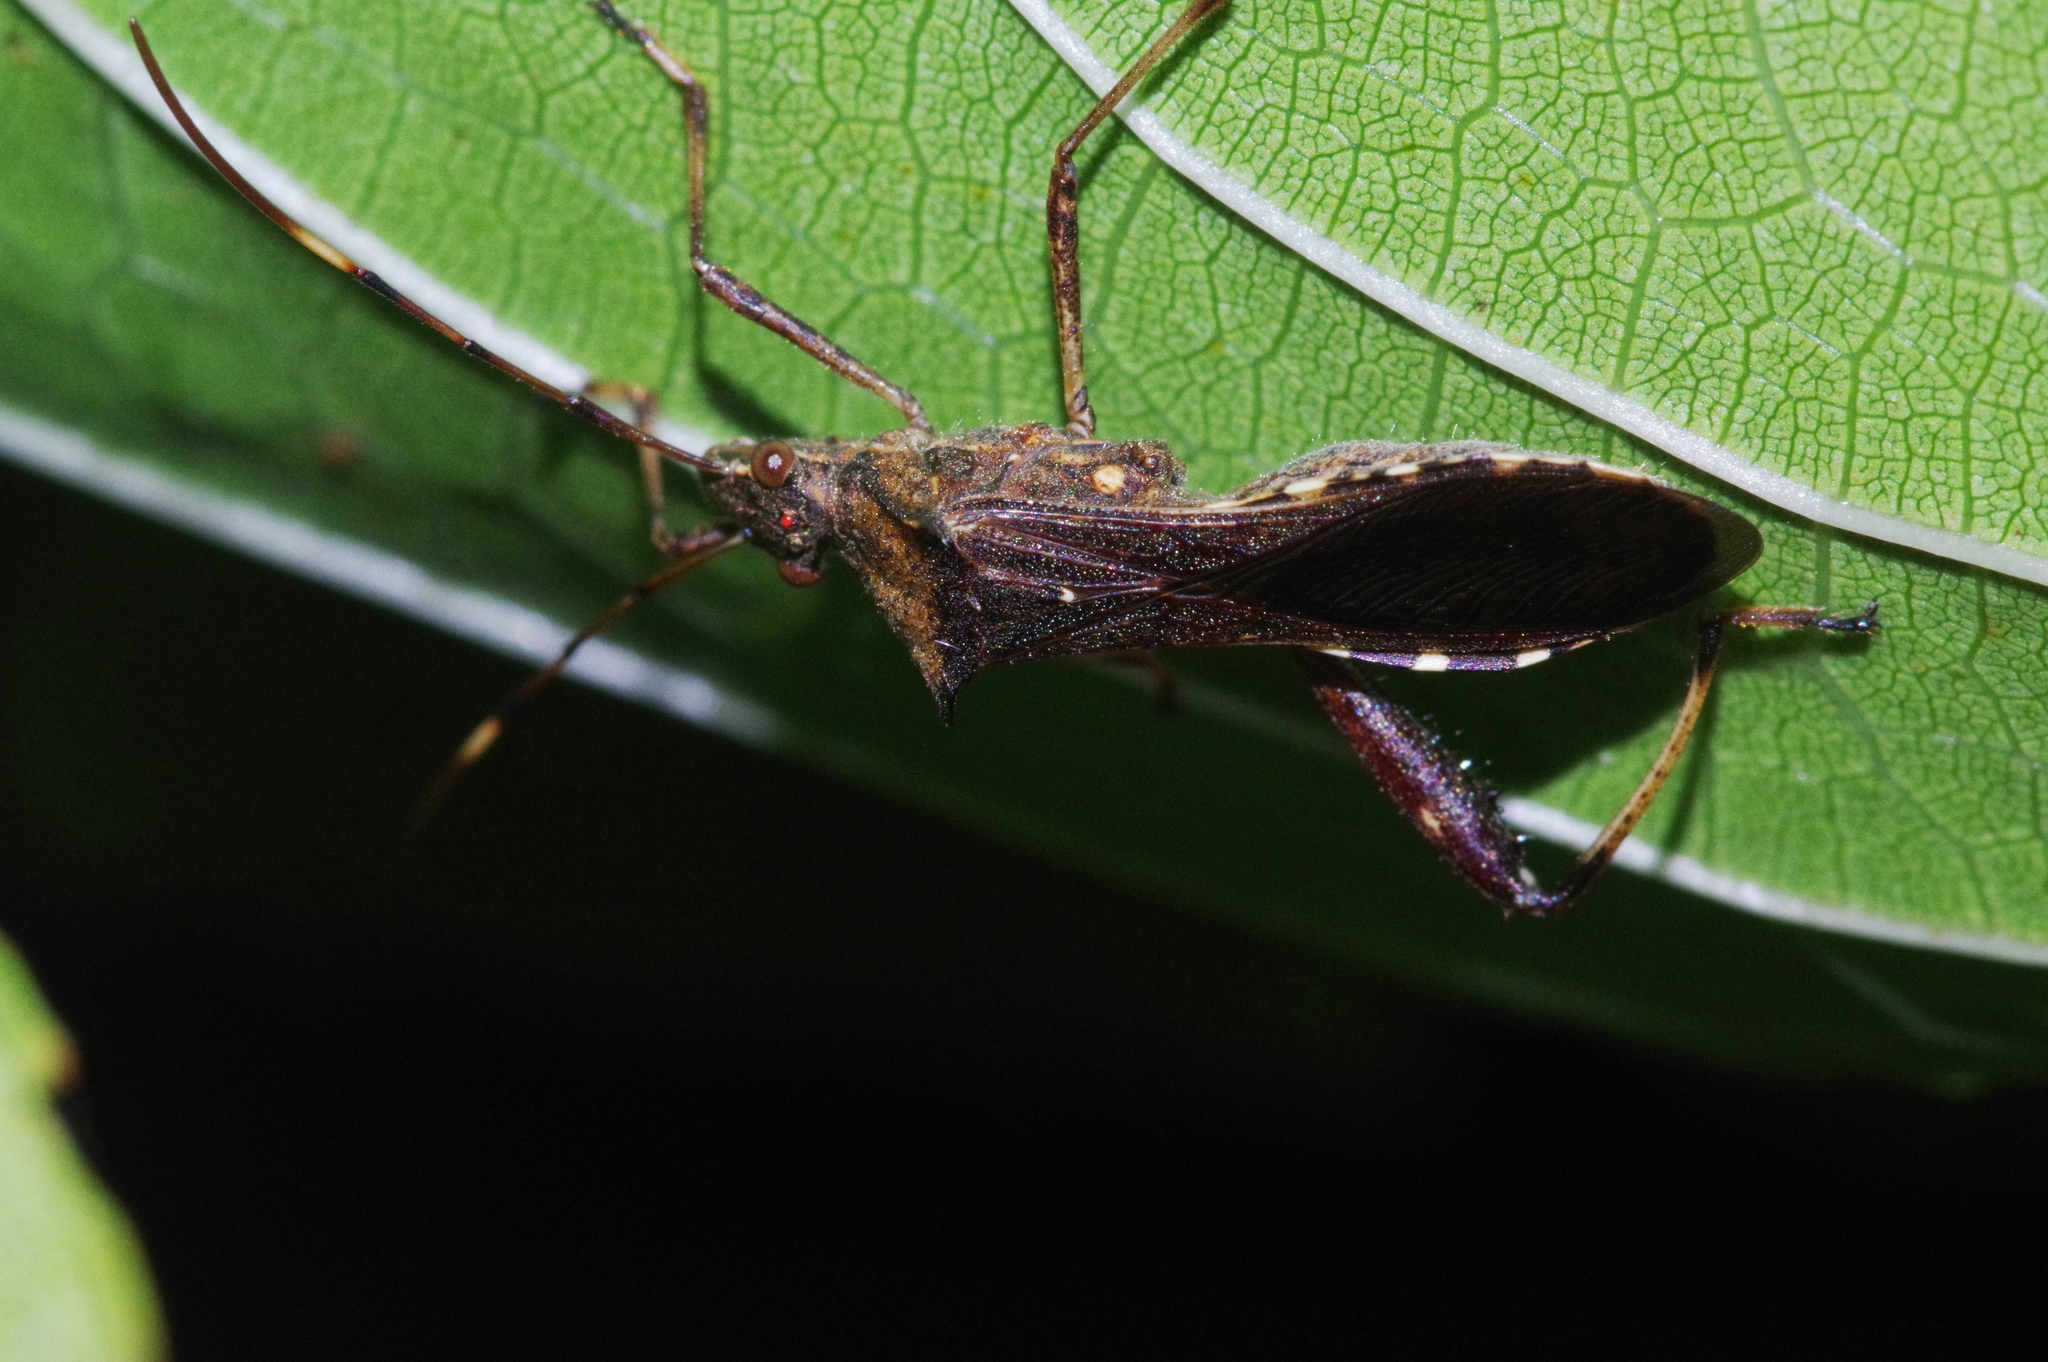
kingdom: Animalia
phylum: Arthropoda
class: Insecta
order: Hemiptera
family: Alydidae
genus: Riptortus
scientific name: Riptortus pedestris
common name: Bean bug
